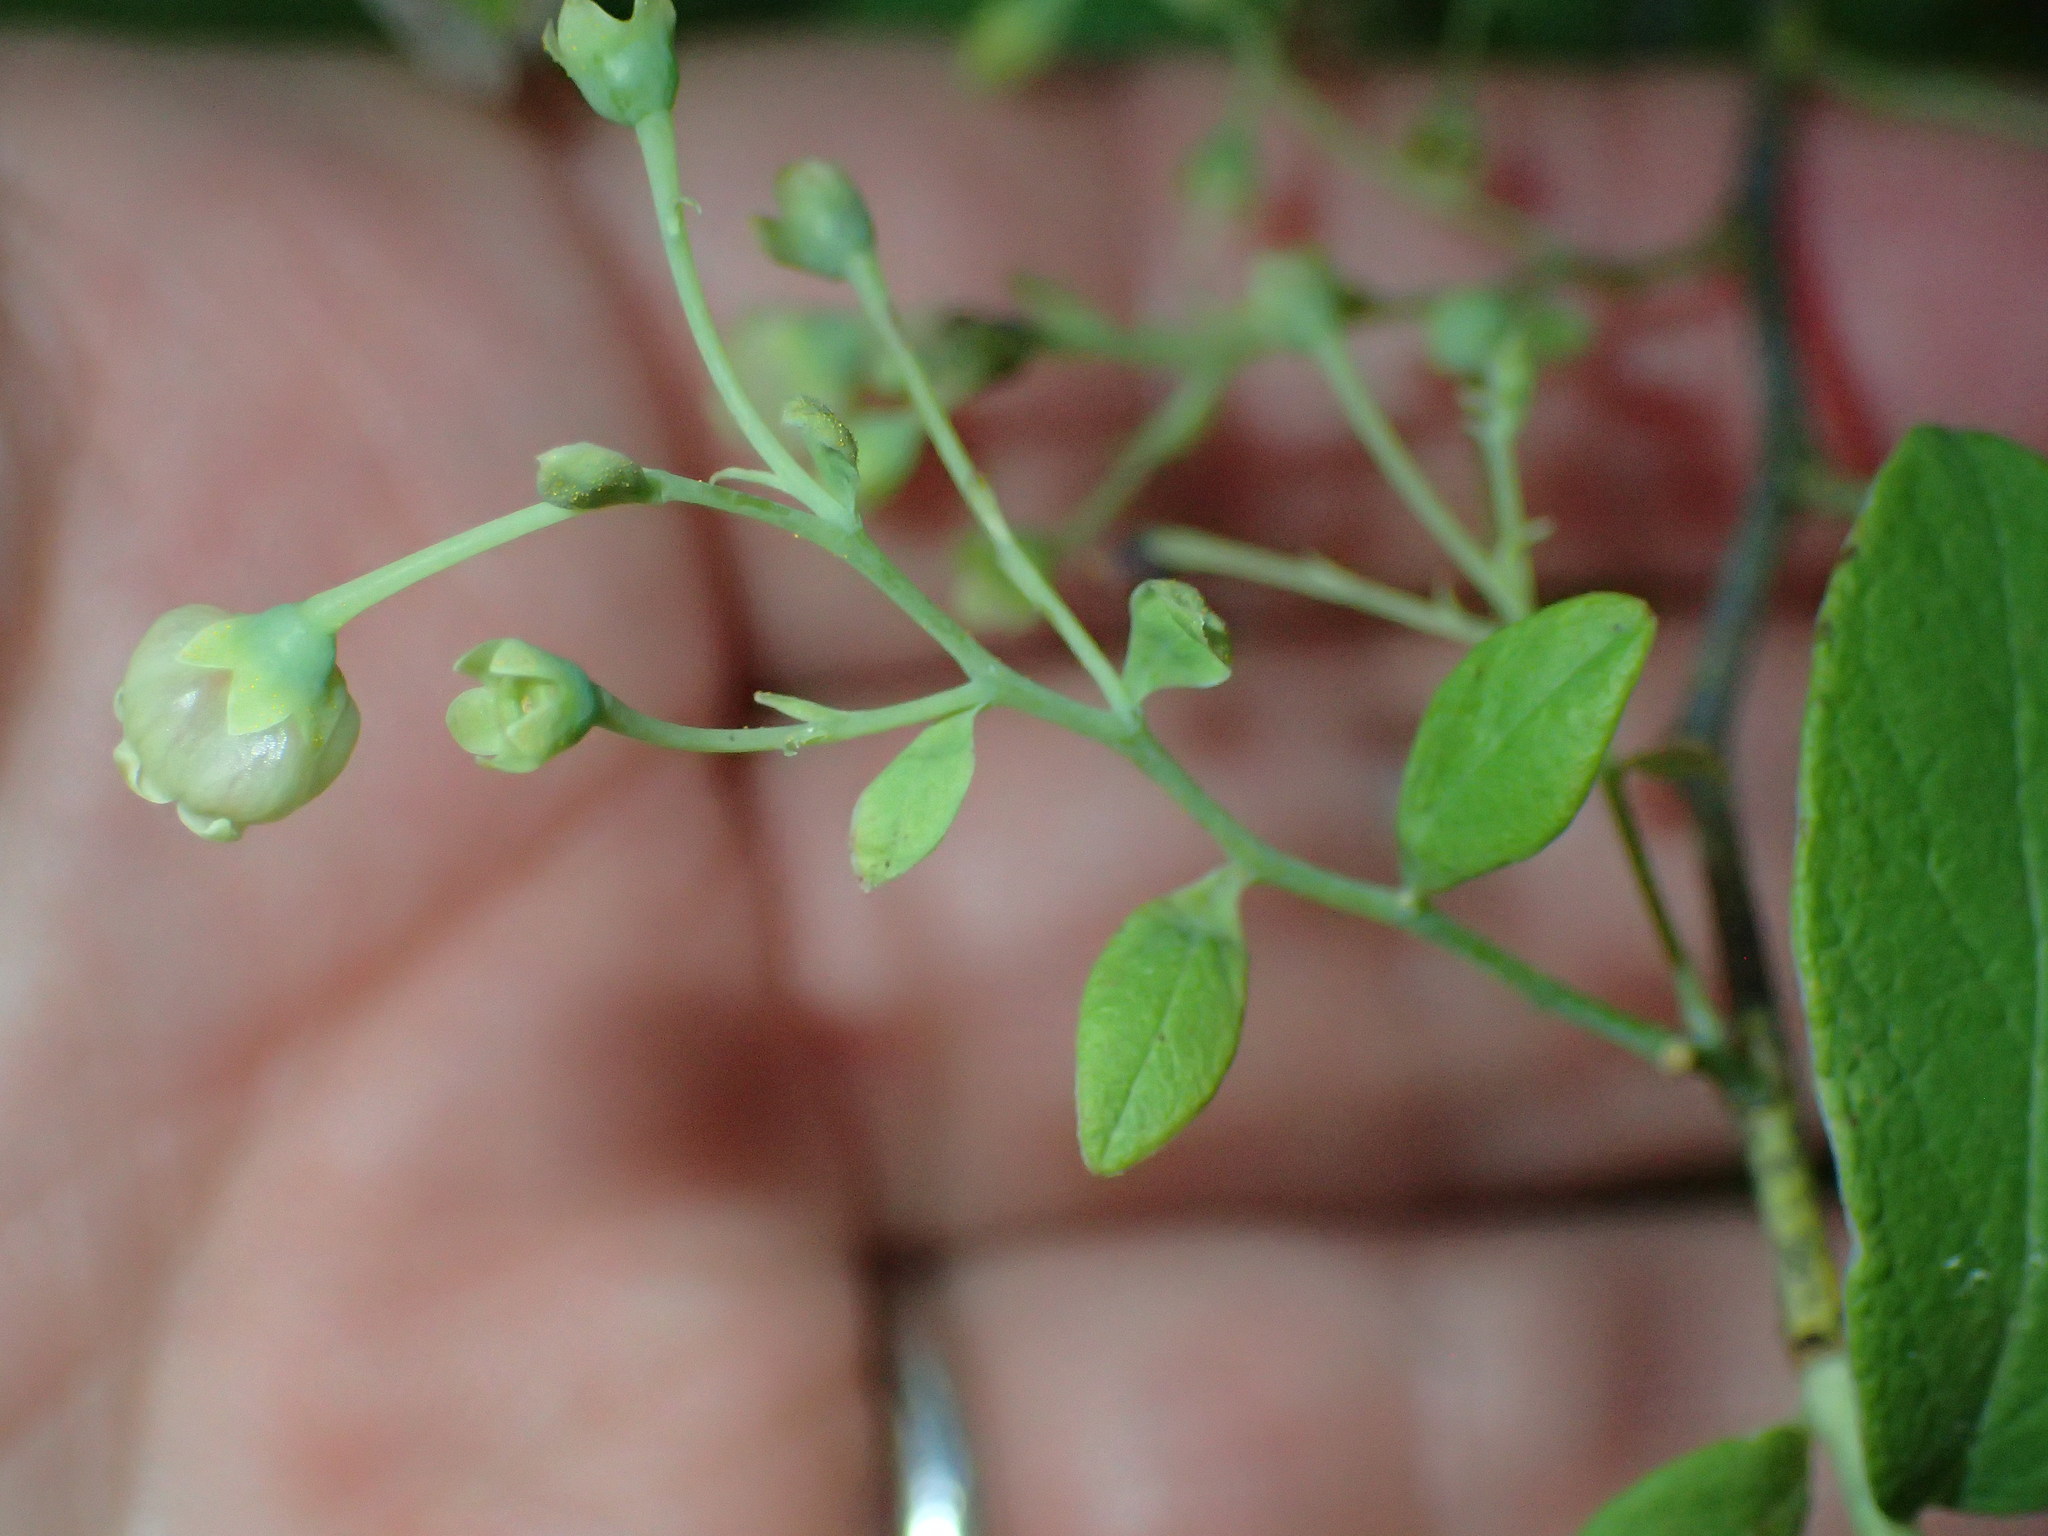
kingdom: Plantae
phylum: Tracheophyta
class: Magnoliopsida
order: Ericales
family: Ericaceae
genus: Gaylussacia
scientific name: Gaylussacia frondosa
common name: Dangleberry
